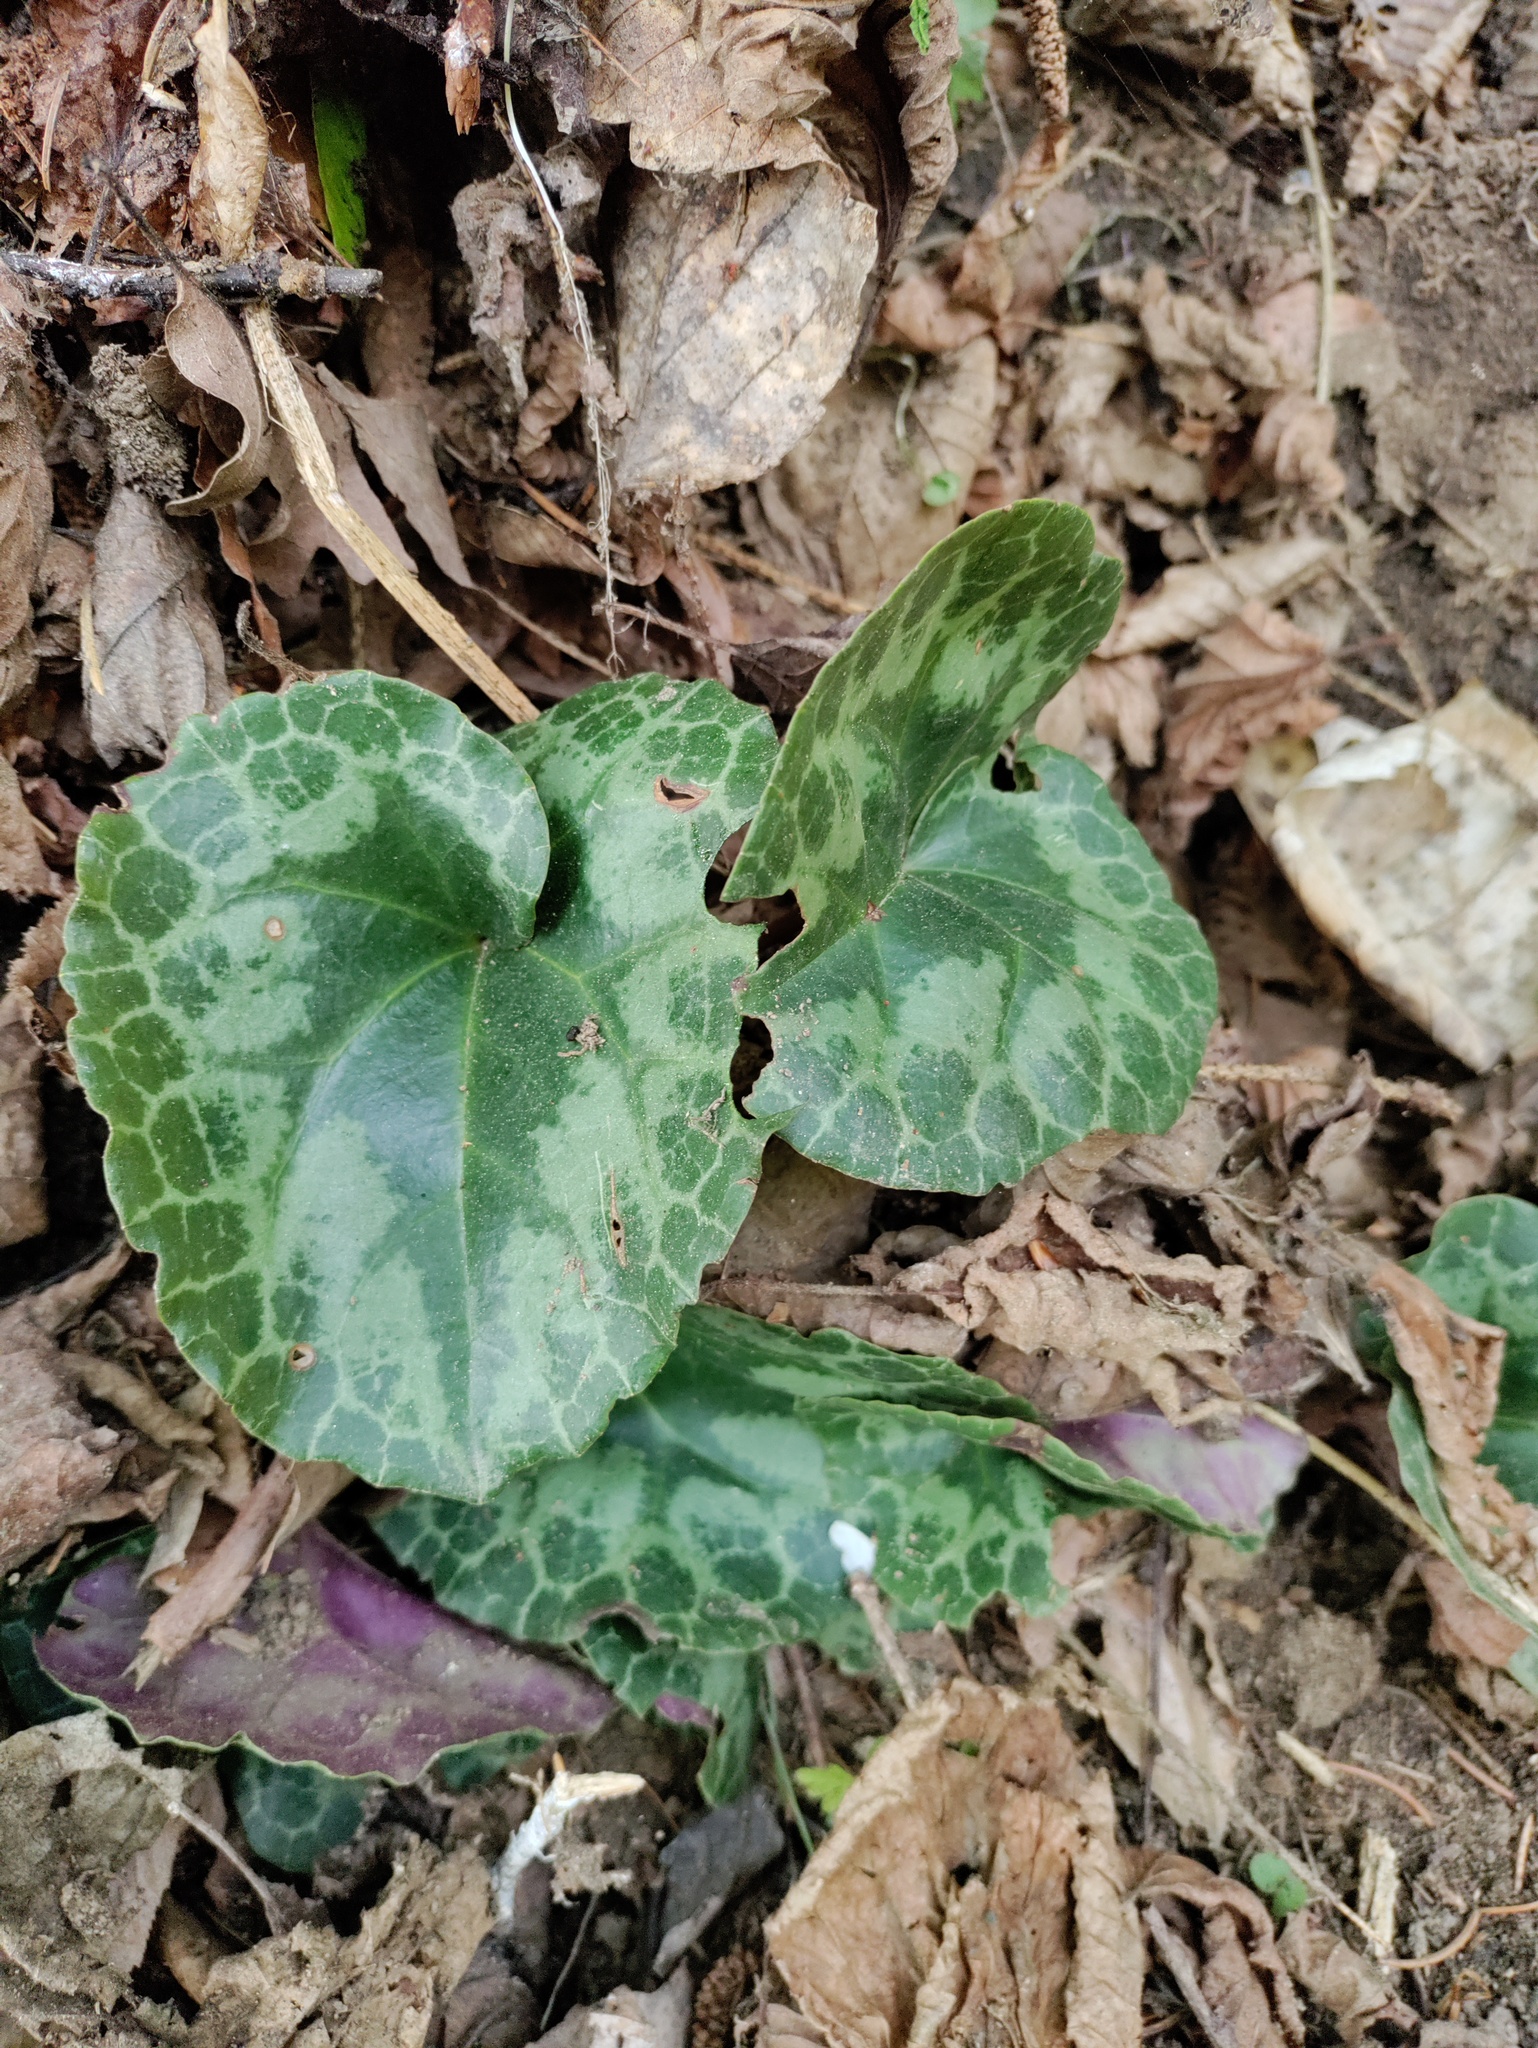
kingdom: Plantae
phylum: Tracheophyta
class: Magnoliopsida
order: Ericales
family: Primulaceae
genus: Cyclamen
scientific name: Cyclamen purpurascens
